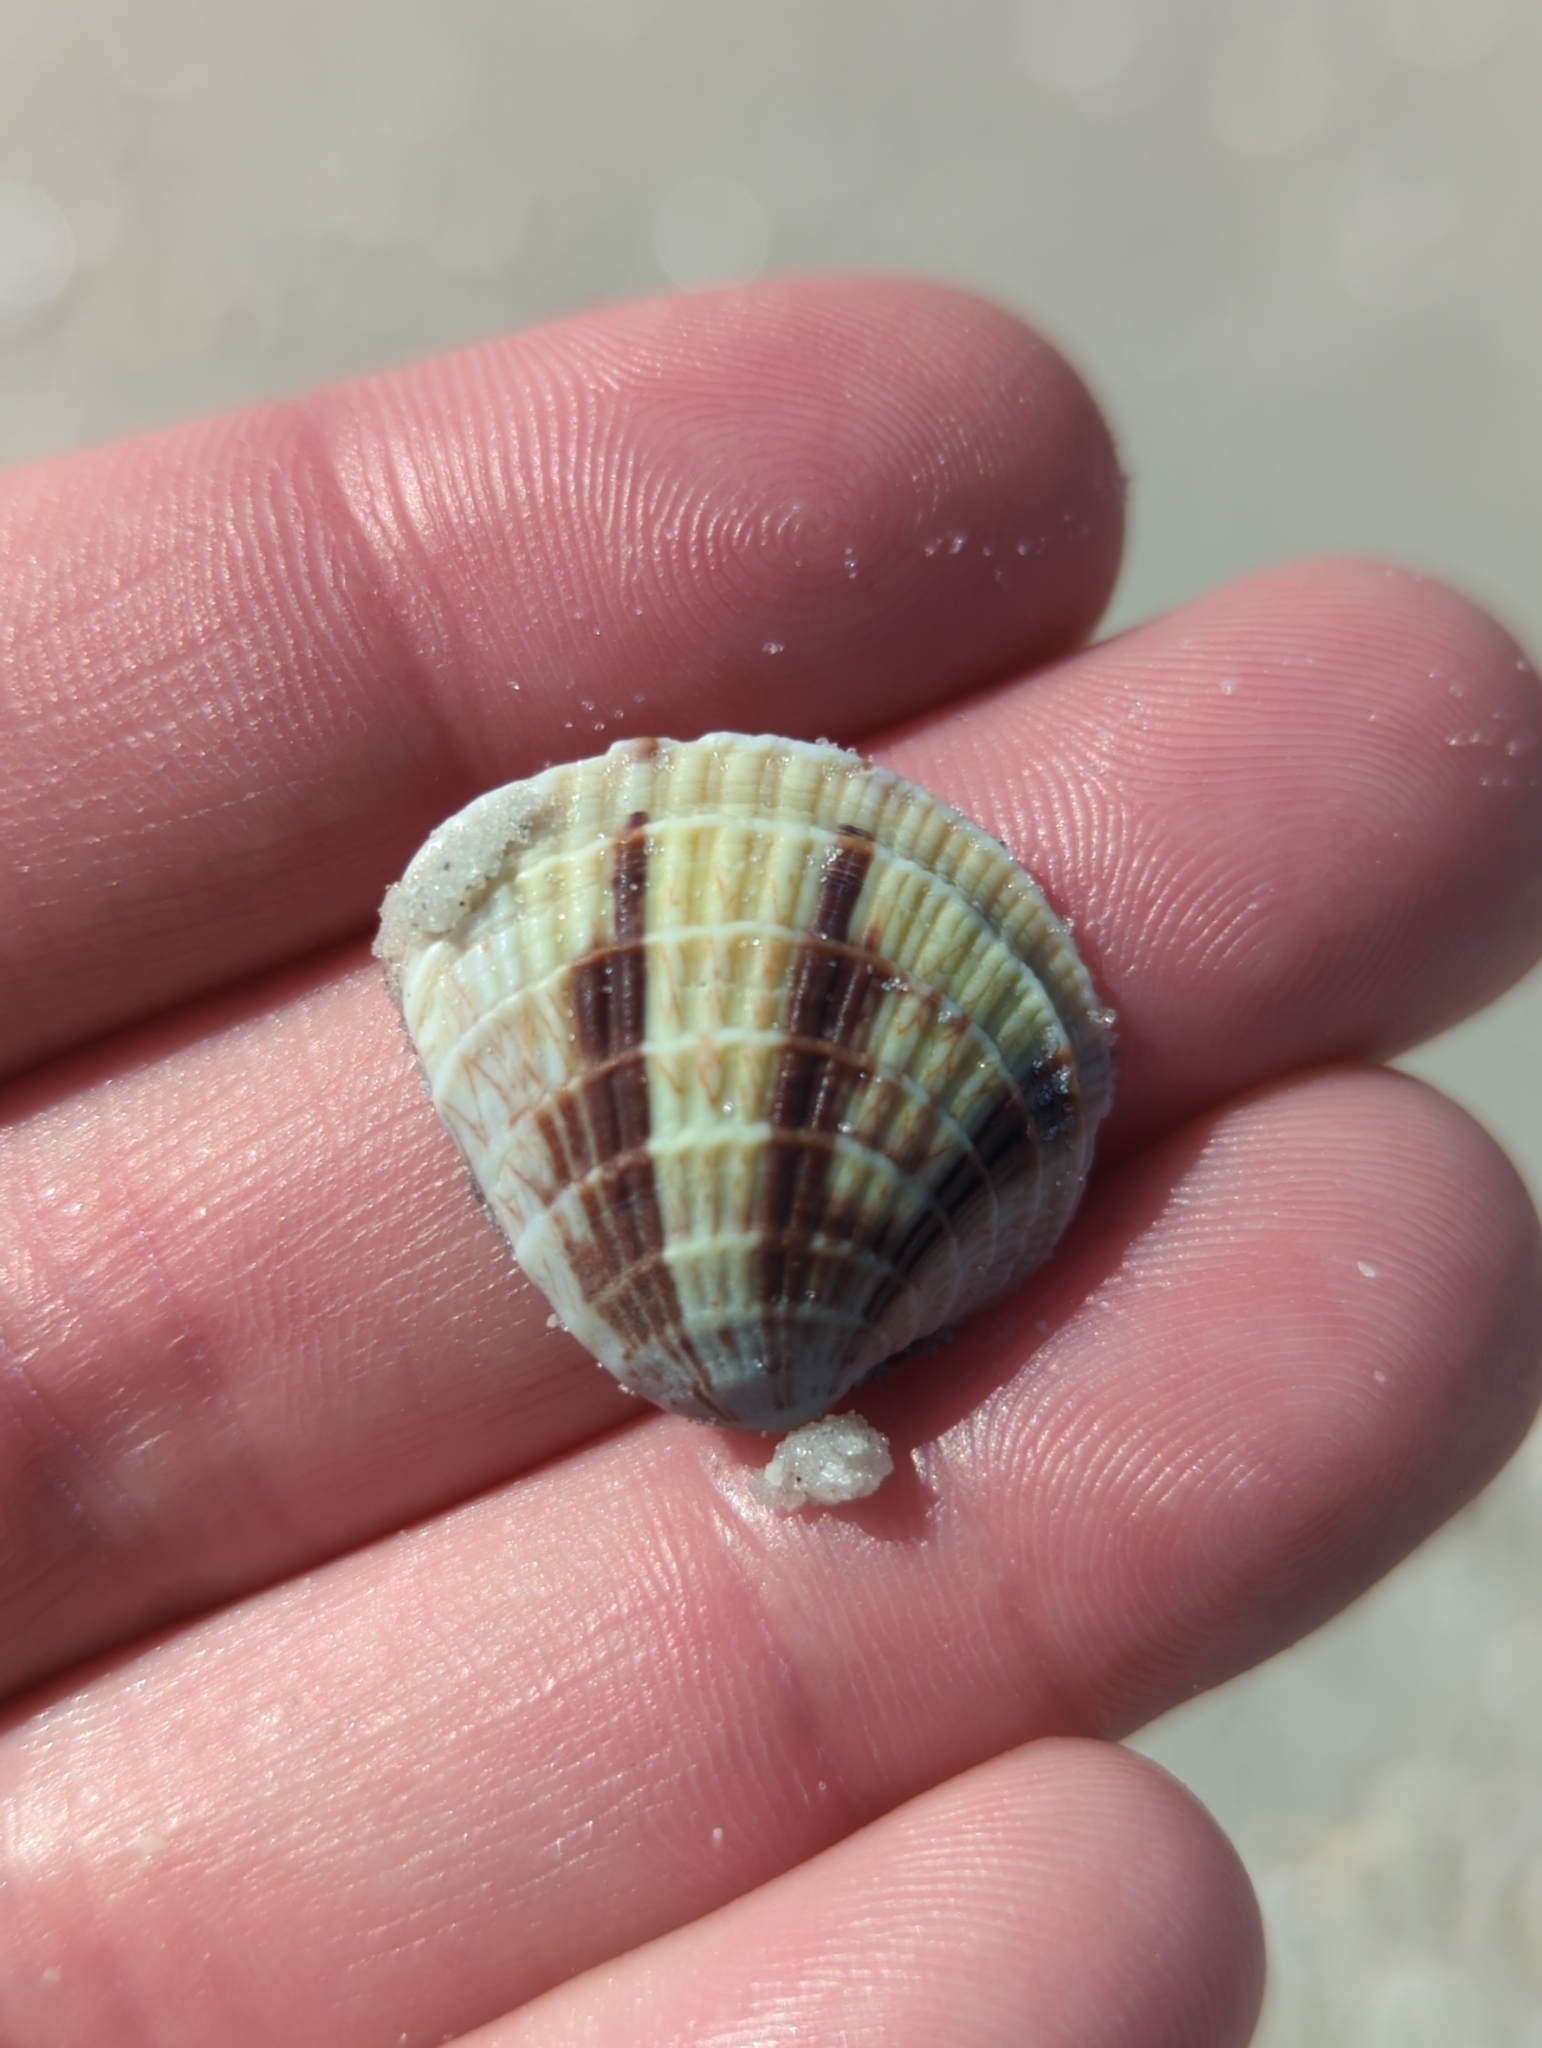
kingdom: Animalia
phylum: Mollusca
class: Bivalvia
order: Venerida
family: Veneridae
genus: Chione
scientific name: Chione elevata
